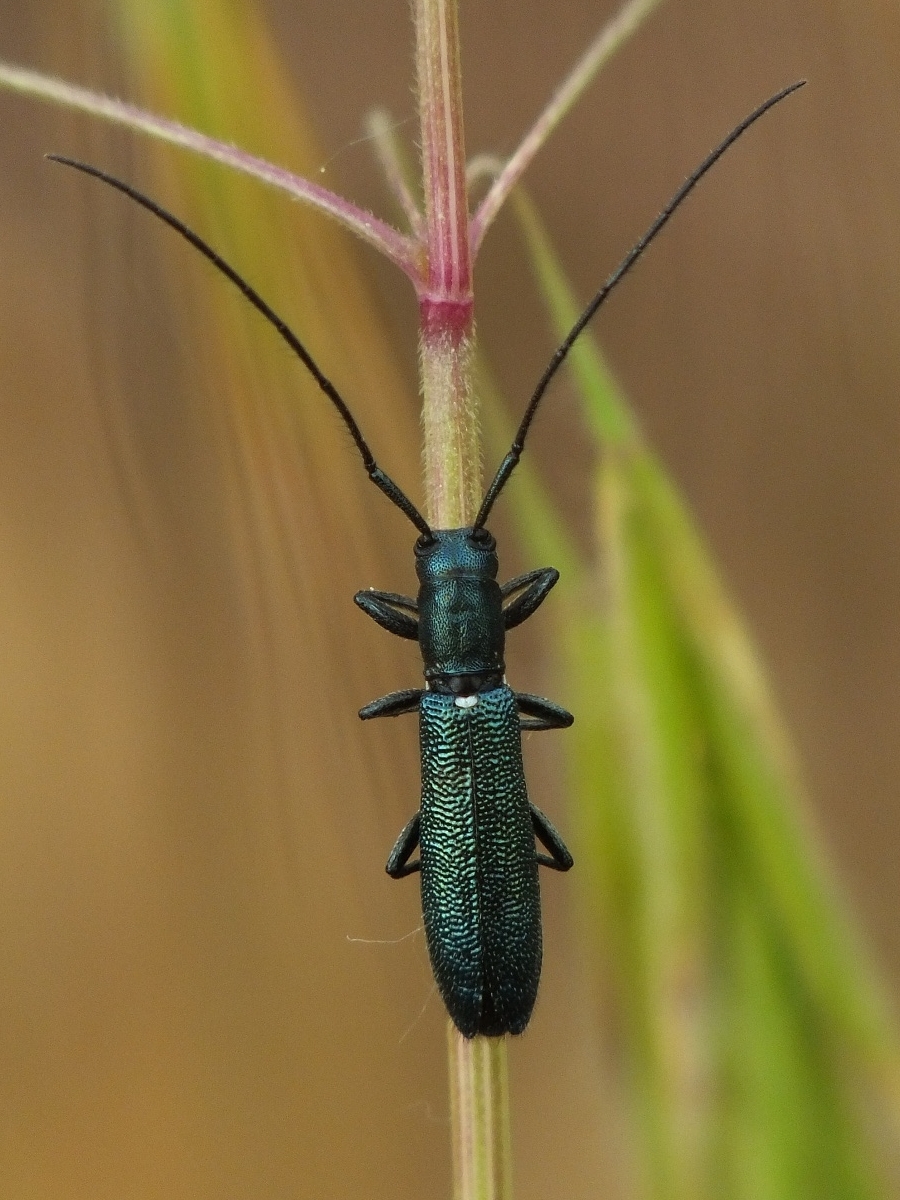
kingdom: Animalia
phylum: Arthropoda
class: Insecta
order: Coleoptera
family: Cerambycidae
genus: Agapanthiola
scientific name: Agapanthiola leucaspis
